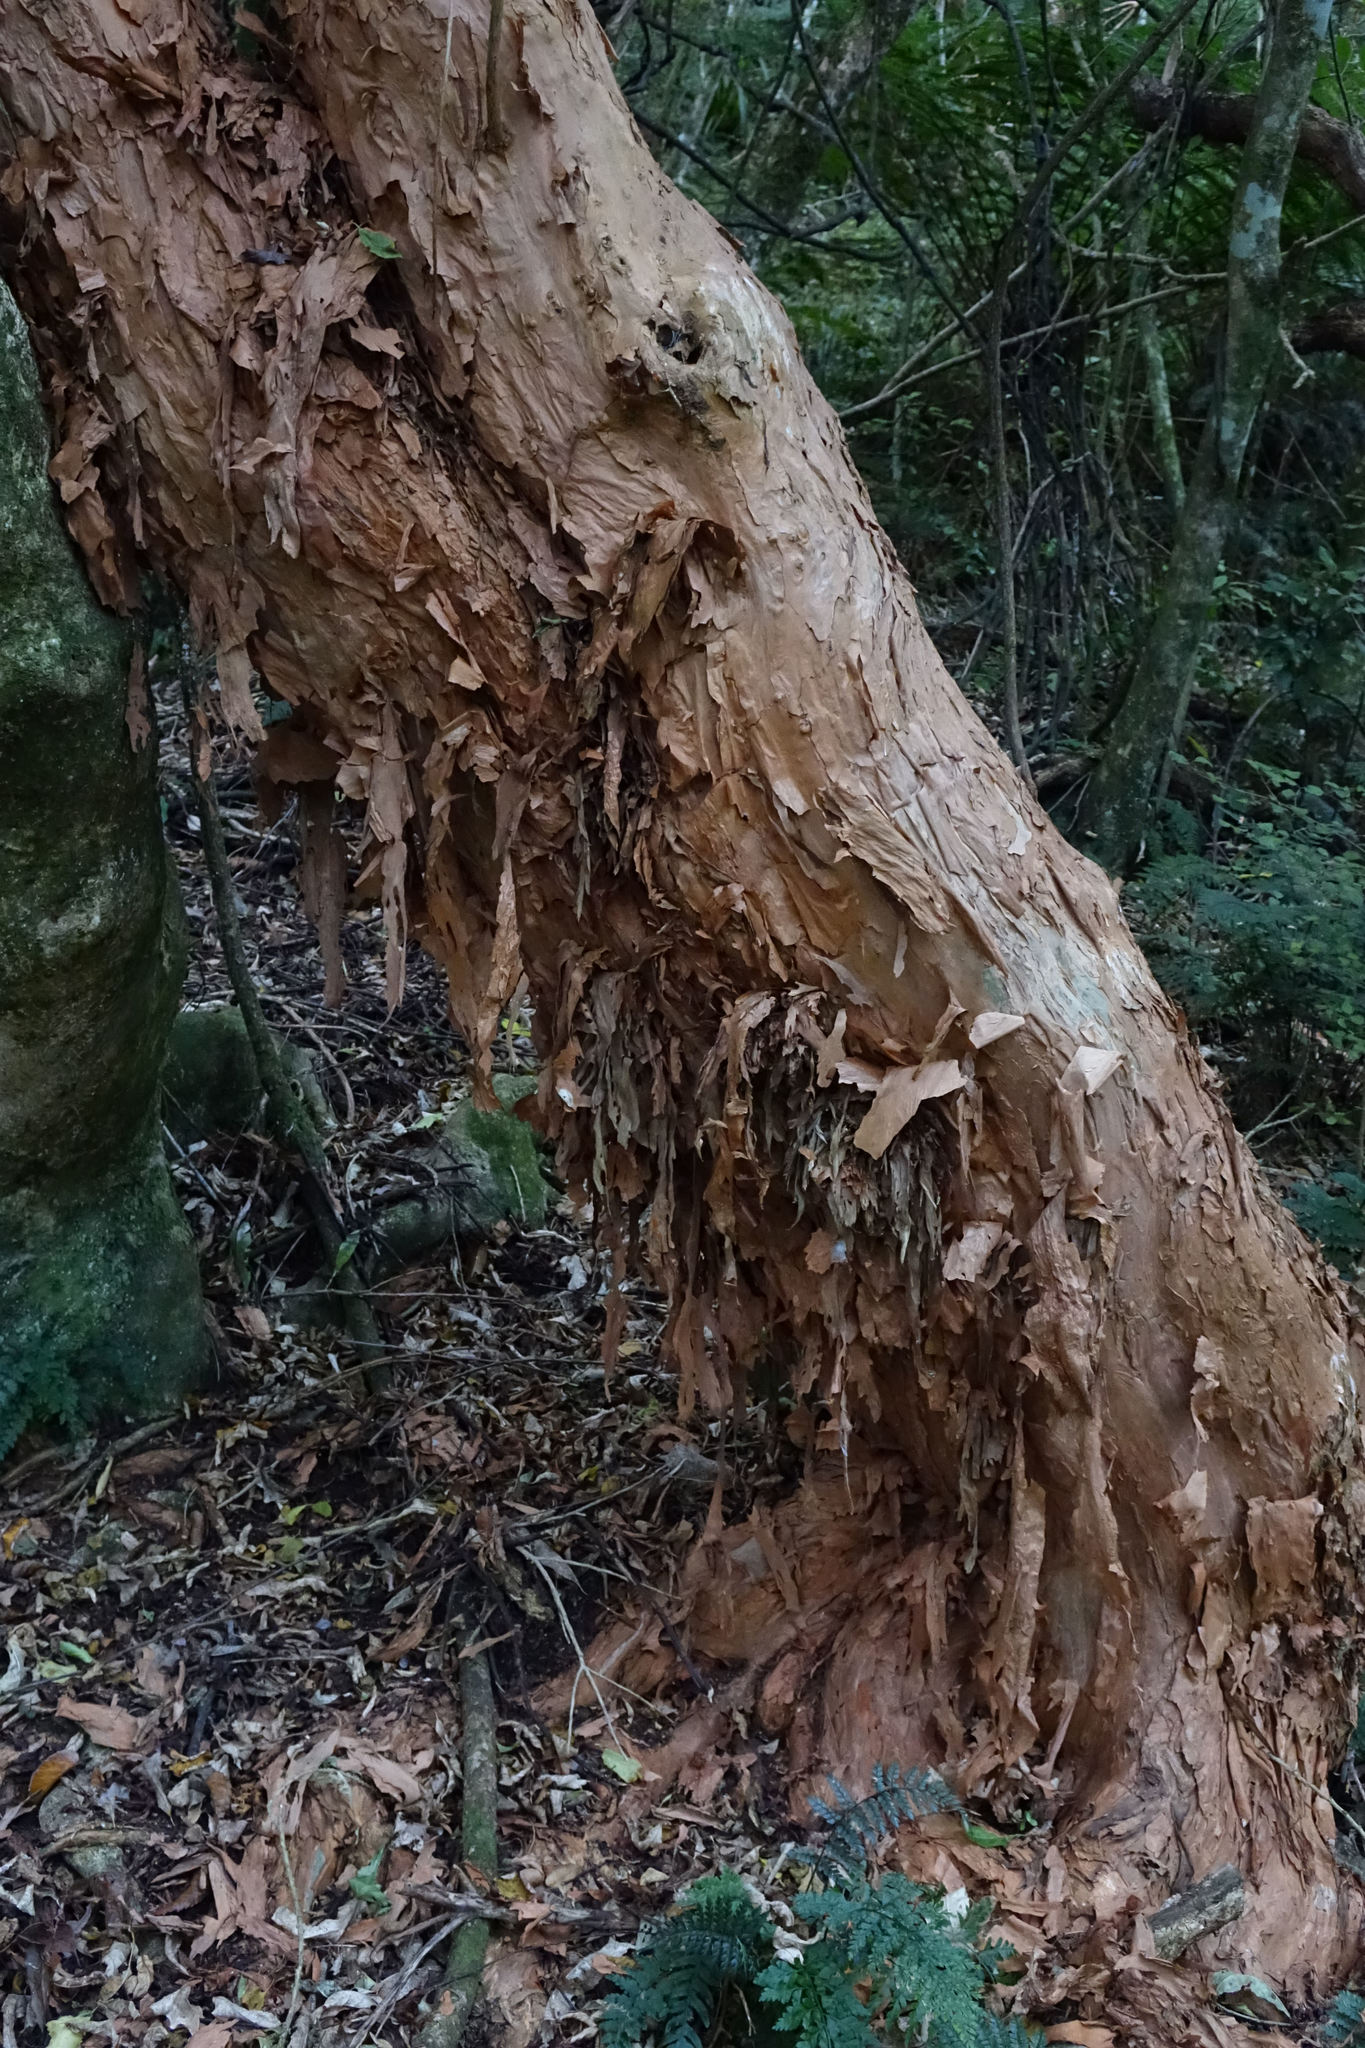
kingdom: Plantae
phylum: Tracheophyta
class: Magnoliopsida
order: Myrtales
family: Onagraceae
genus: Fuchsia
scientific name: Fuchsia excorticata
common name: Tree fuchsia
